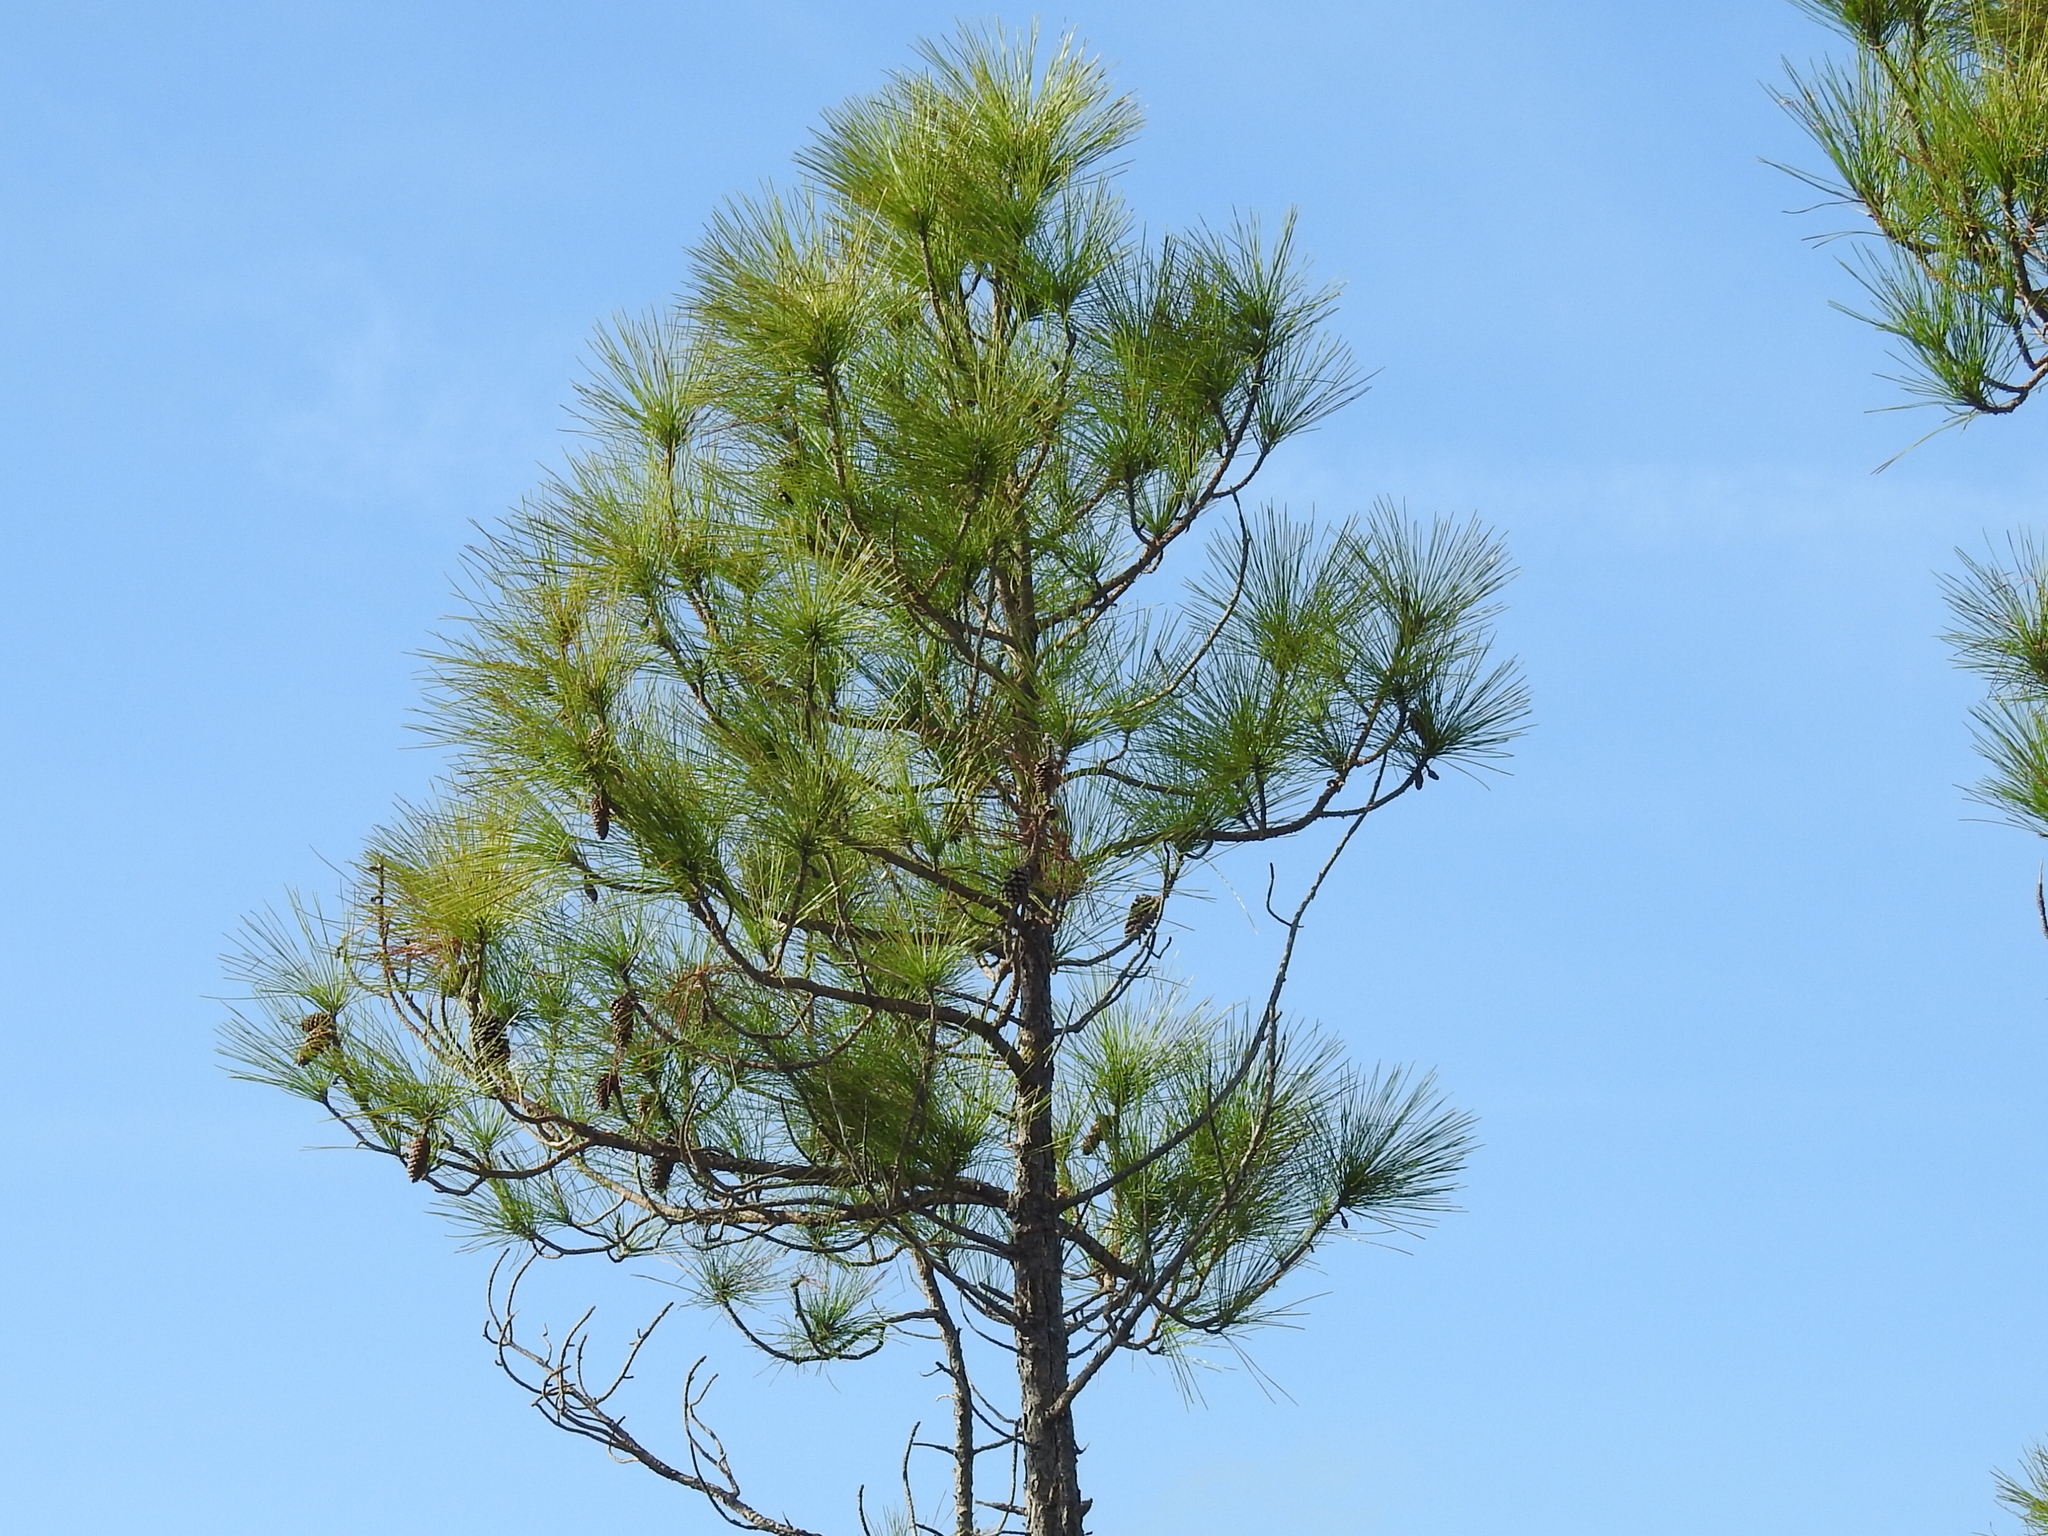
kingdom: Plantae
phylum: Tracheophyta
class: Pinopsida
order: Pinales
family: Pinaceae
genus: Pinus
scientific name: Pinus elliottii
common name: Slash pine
